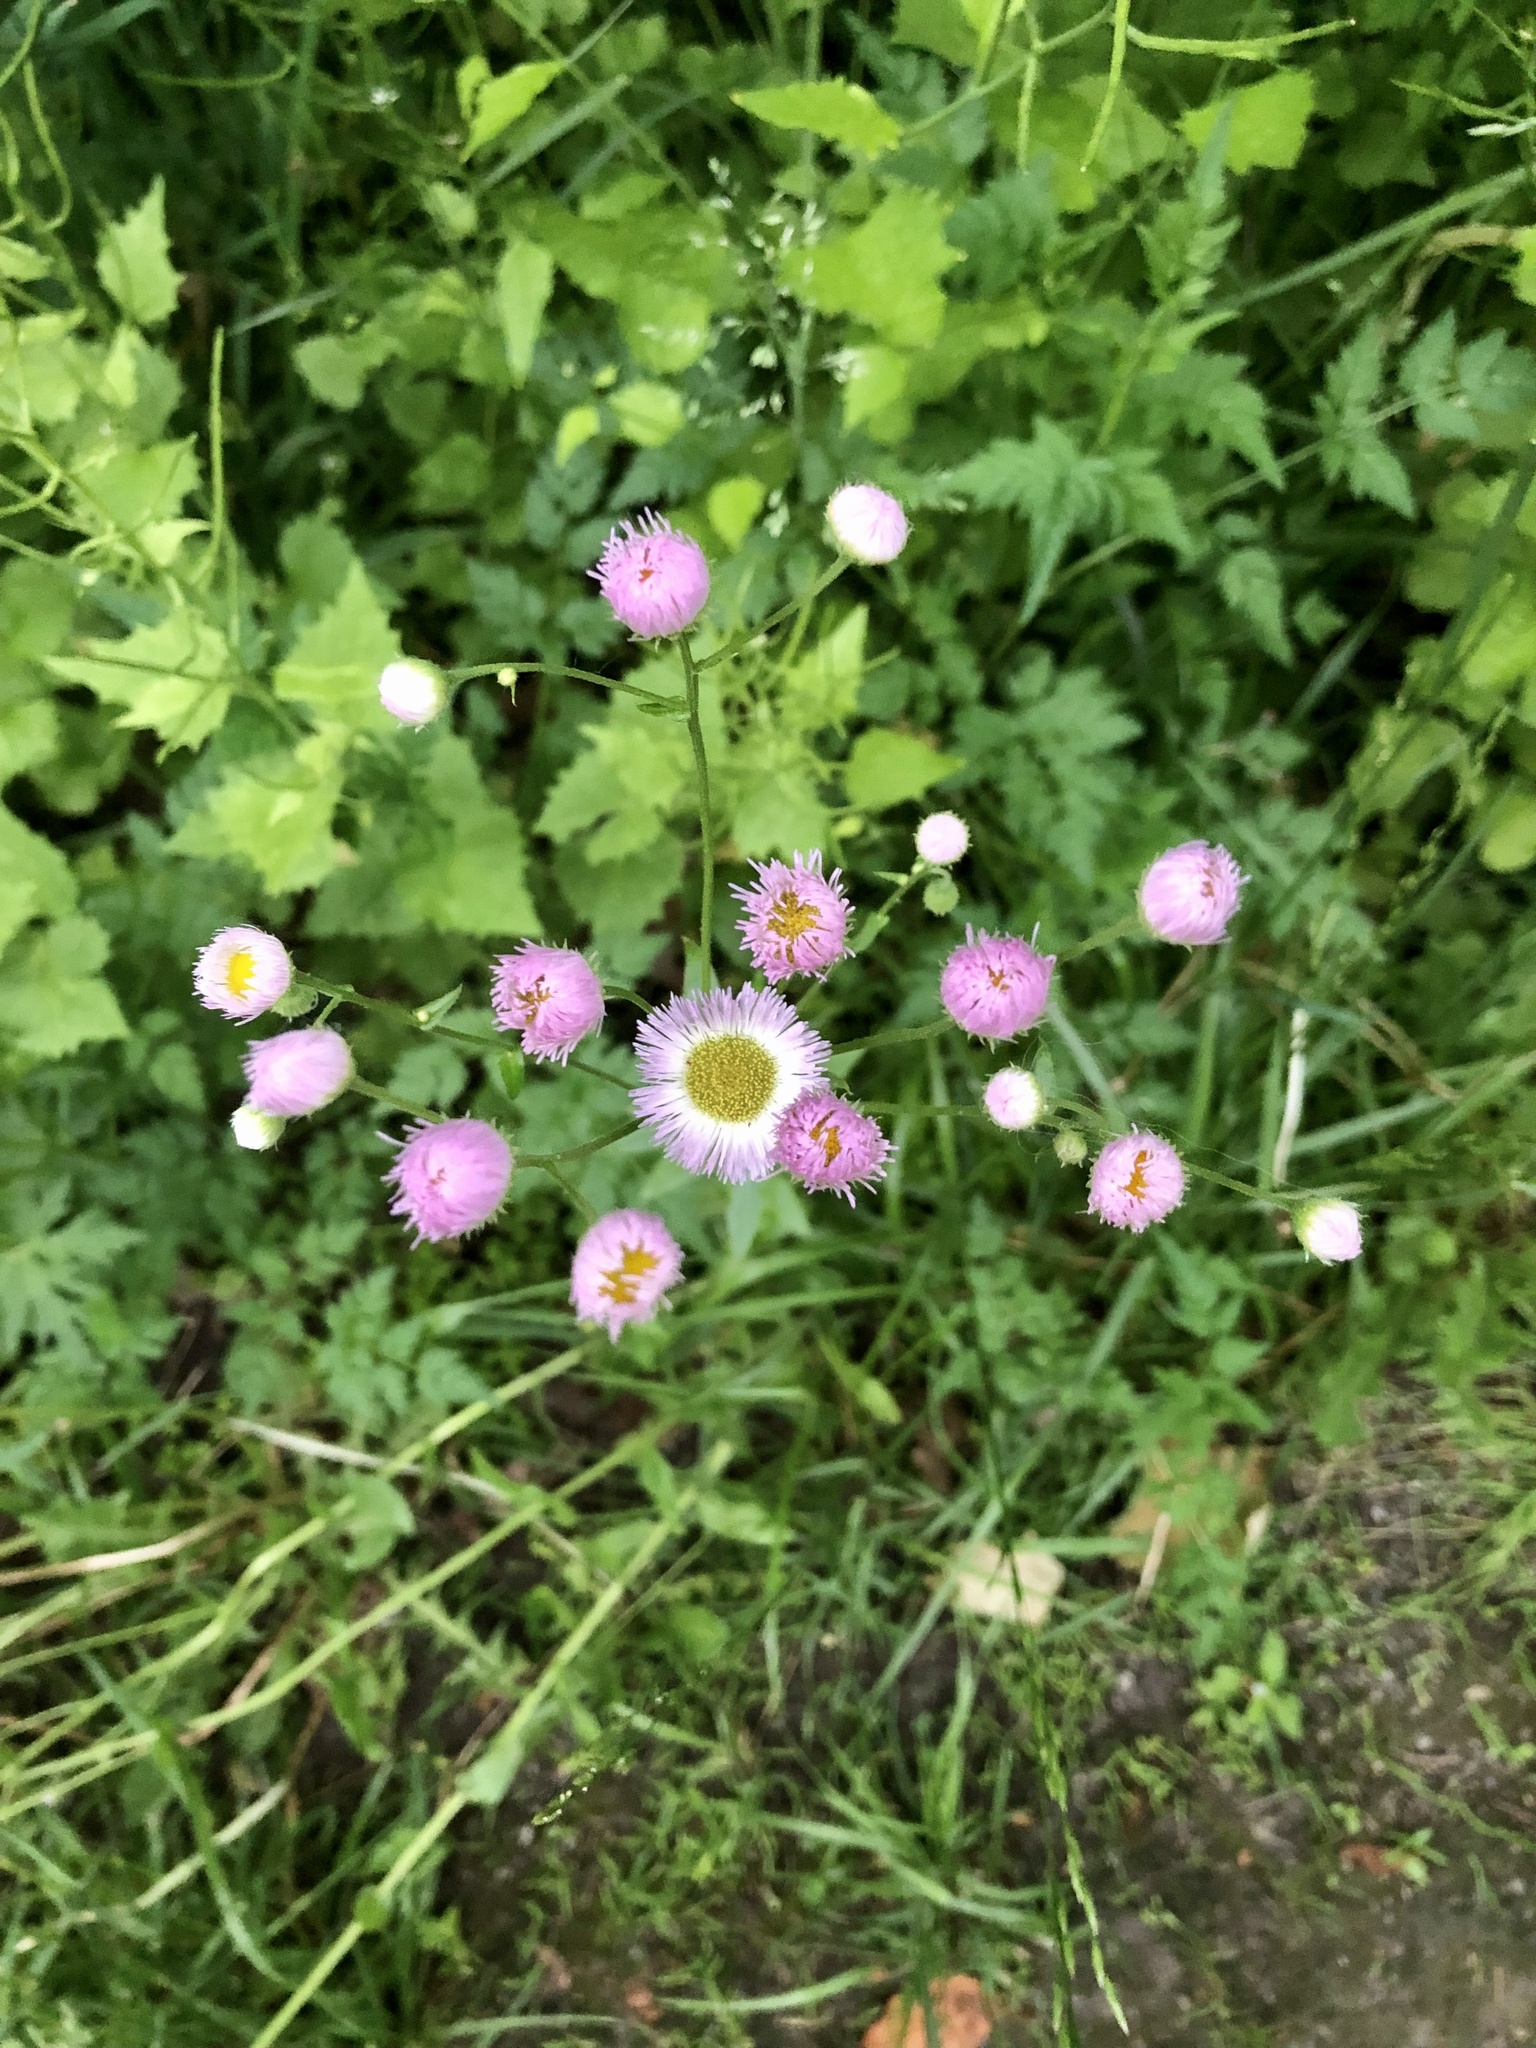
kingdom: Plantae
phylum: Tracheophyta
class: Magnoliopsida
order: Asterales
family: Asteraceae
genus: Erigeron
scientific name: Erigeron philadelphicus
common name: Robin's-plantain
